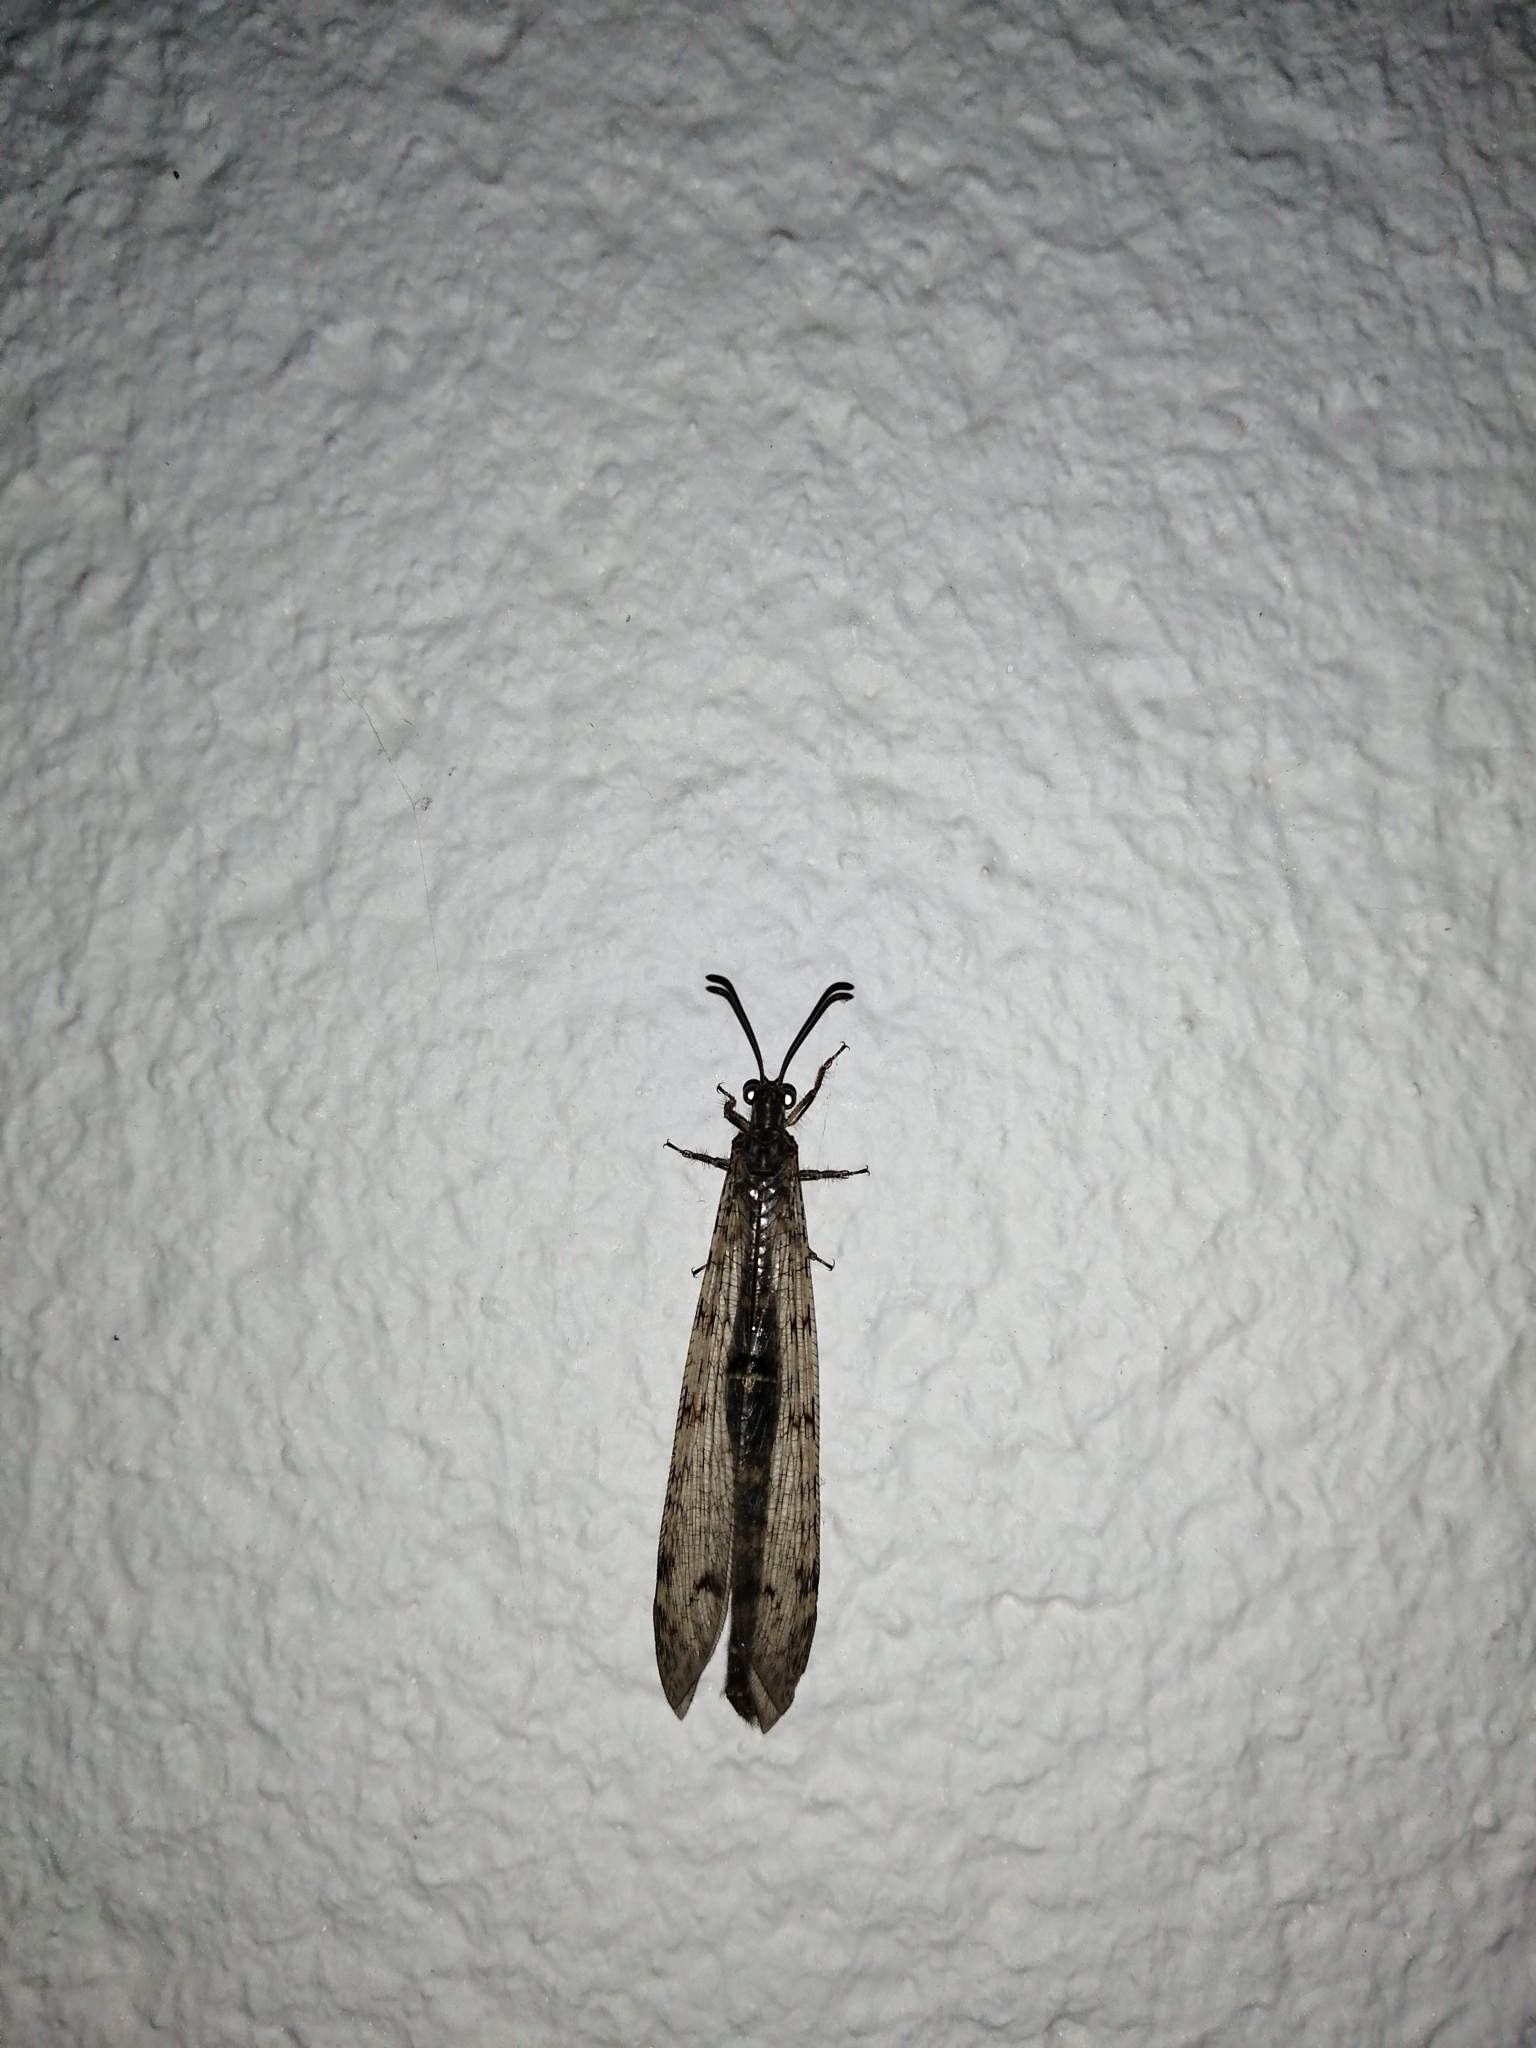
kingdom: Animalia
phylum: Arthropoda
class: Insecta
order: Neuroptera
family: Myrmeleontidae
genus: Distoleon
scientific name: Distoleon tetragrammicus
